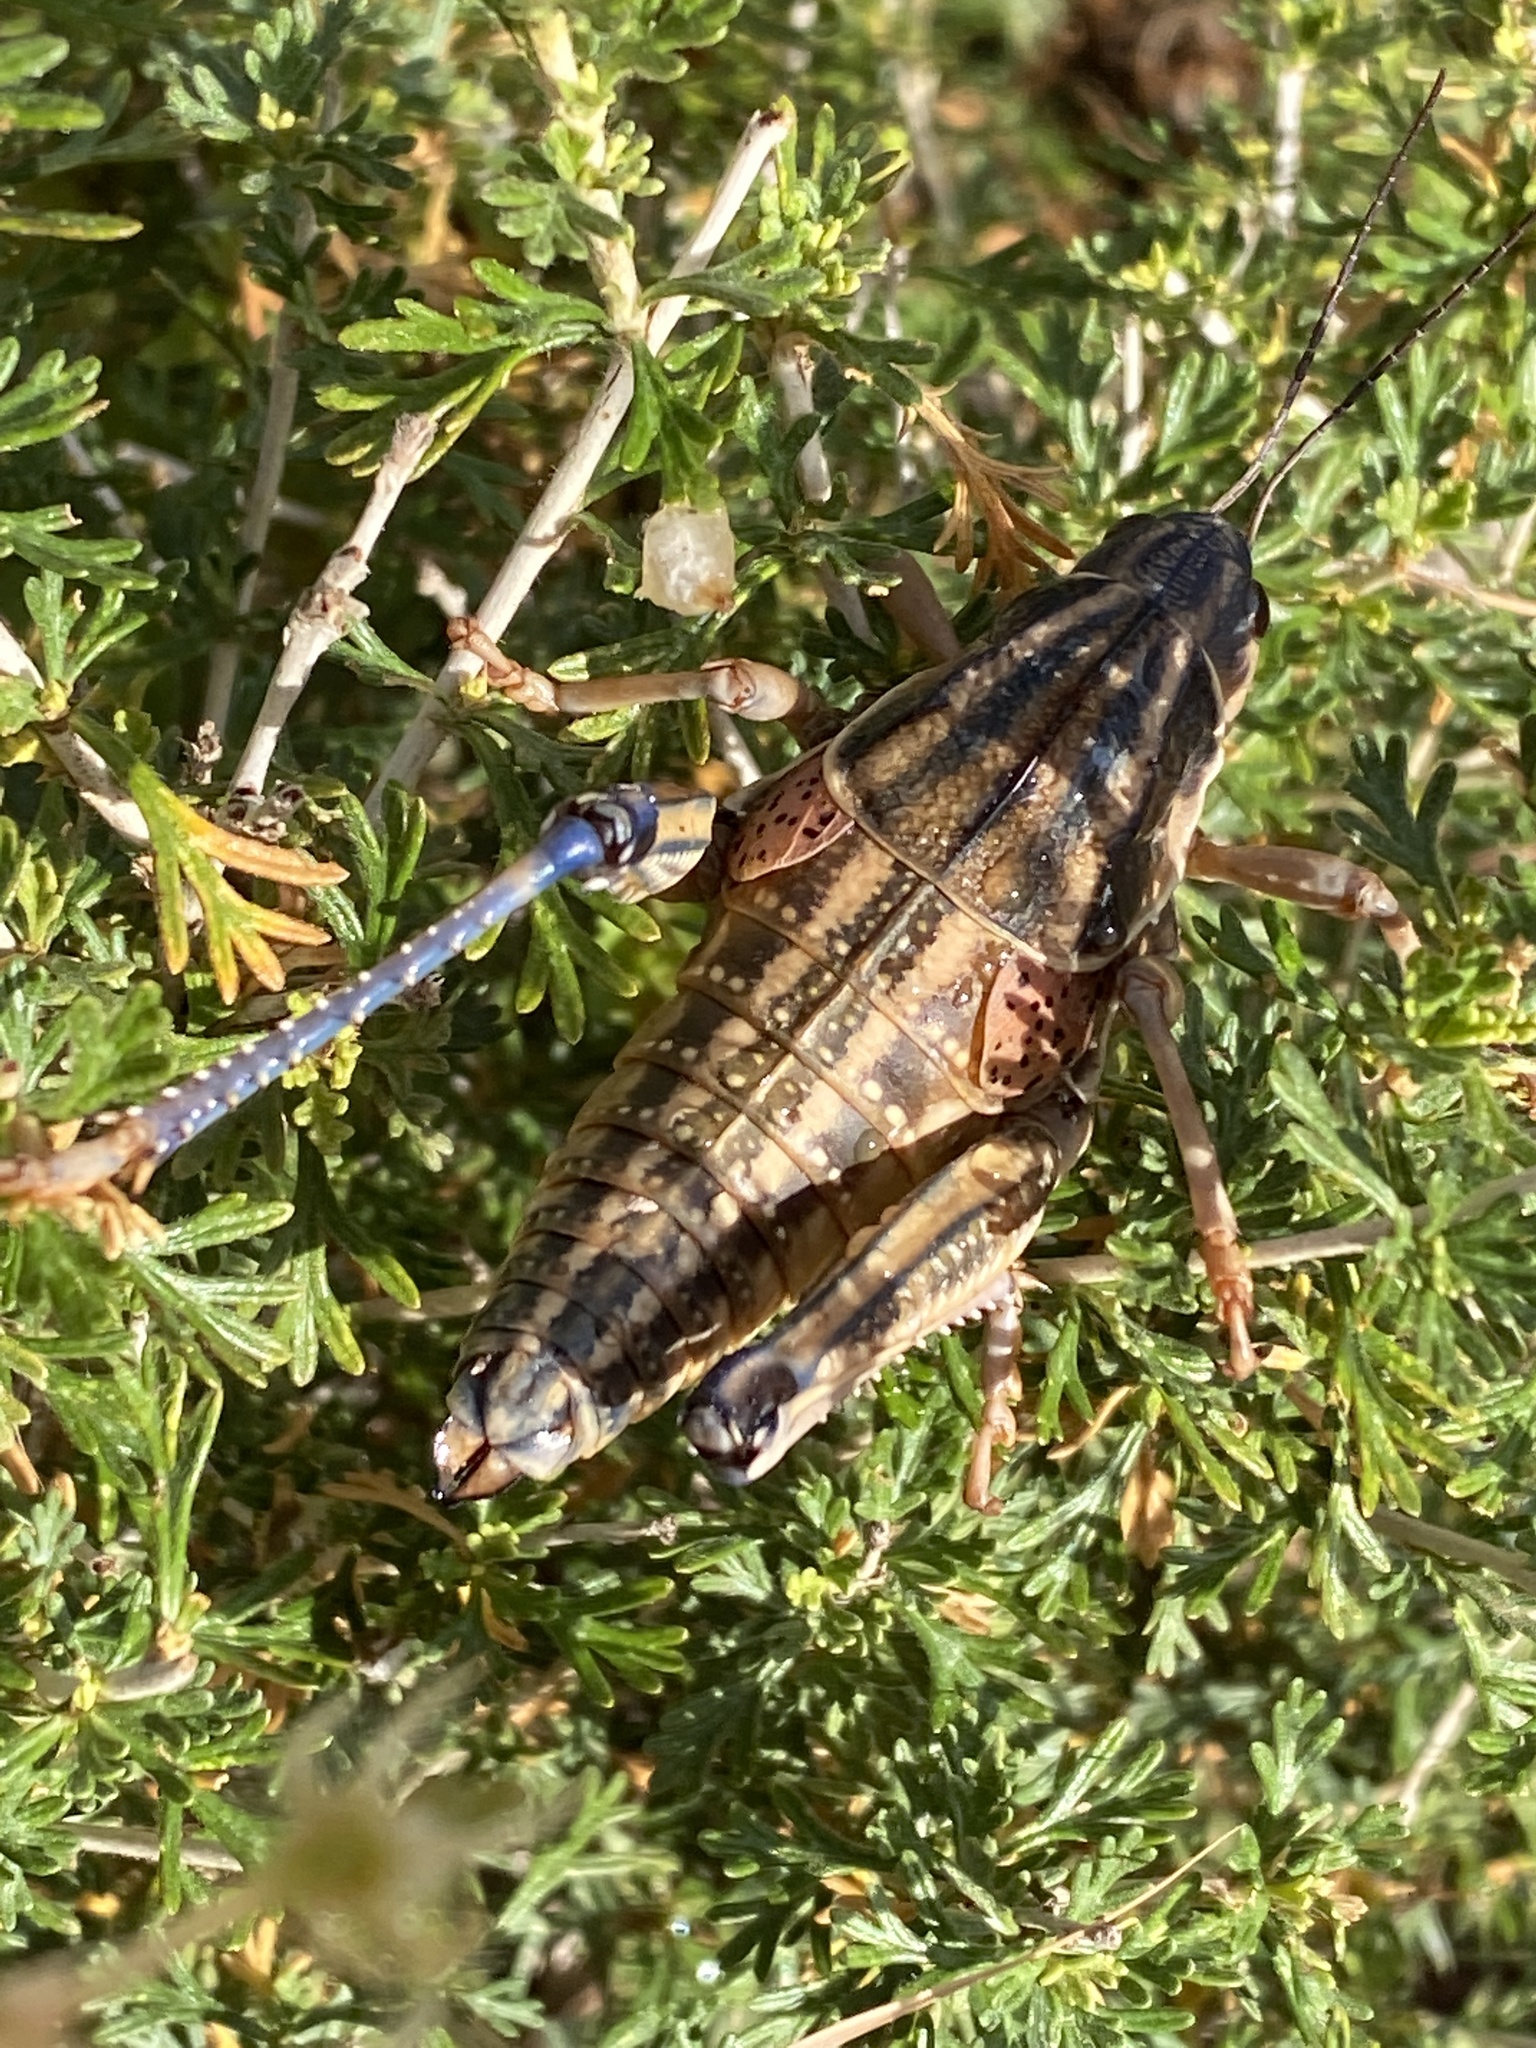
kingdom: Animalia
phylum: Arthropoda
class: Insecta
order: Orthoptera
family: Romaleidae
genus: Brachystola
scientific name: Brachystola magna
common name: Plains lubber grasshopper
